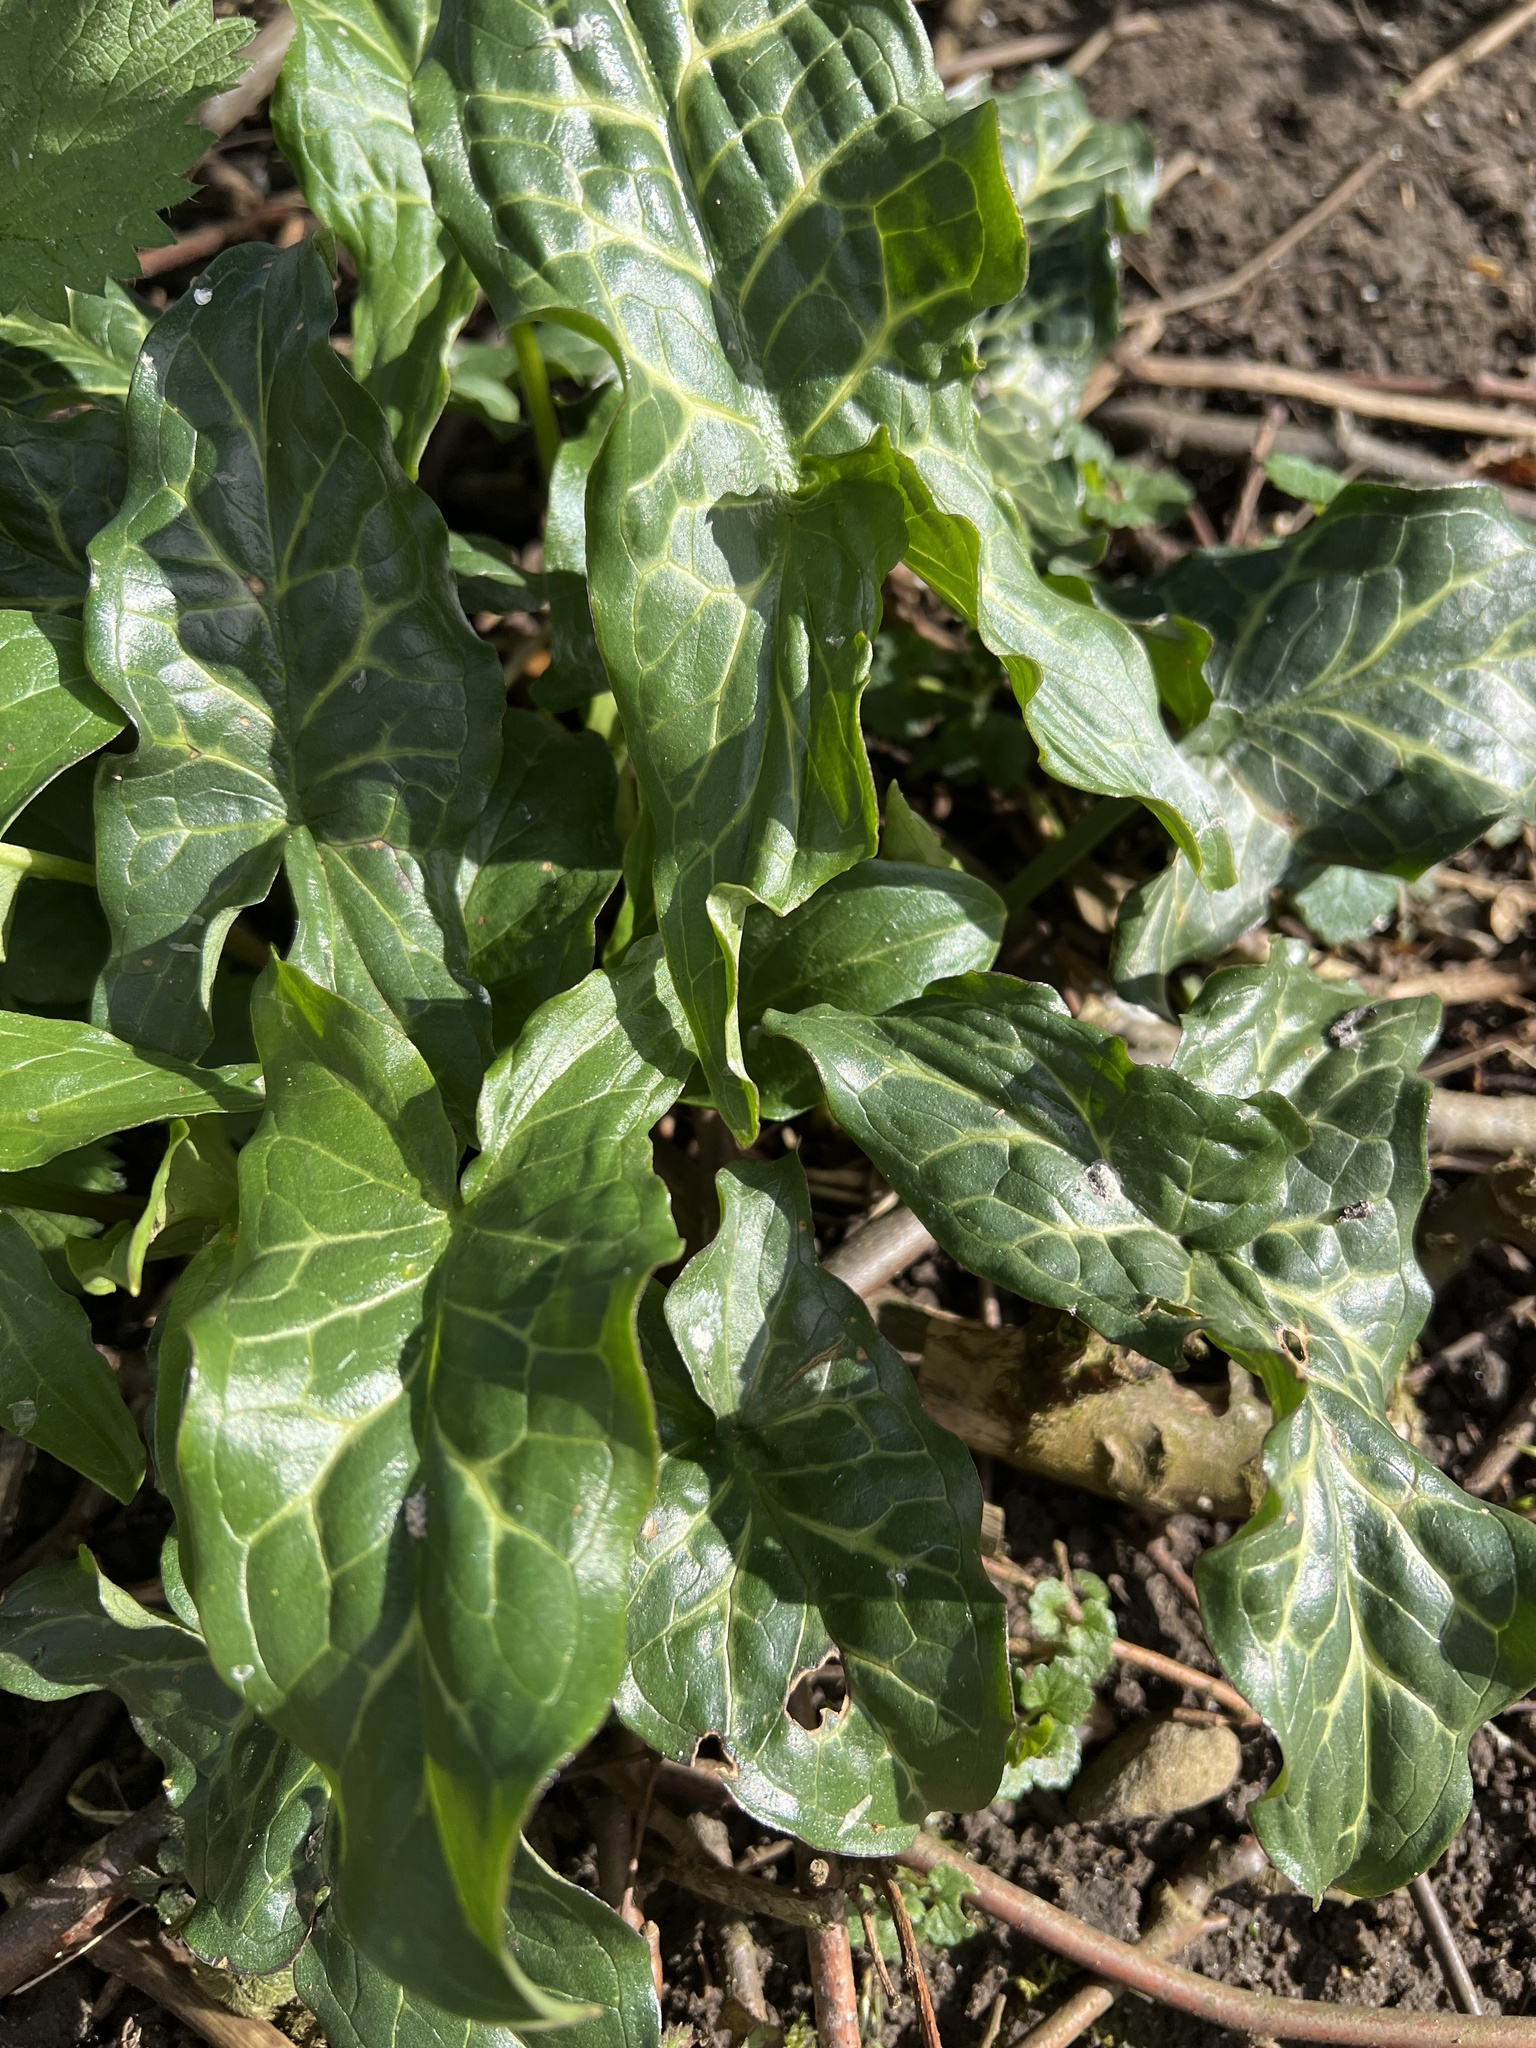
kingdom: Plantae
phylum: Tracheophyta
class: Liliopsida
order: Alismatales
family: Araceae
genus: Arum
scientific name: Arum italicum
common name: Italian lords-and-ladies
